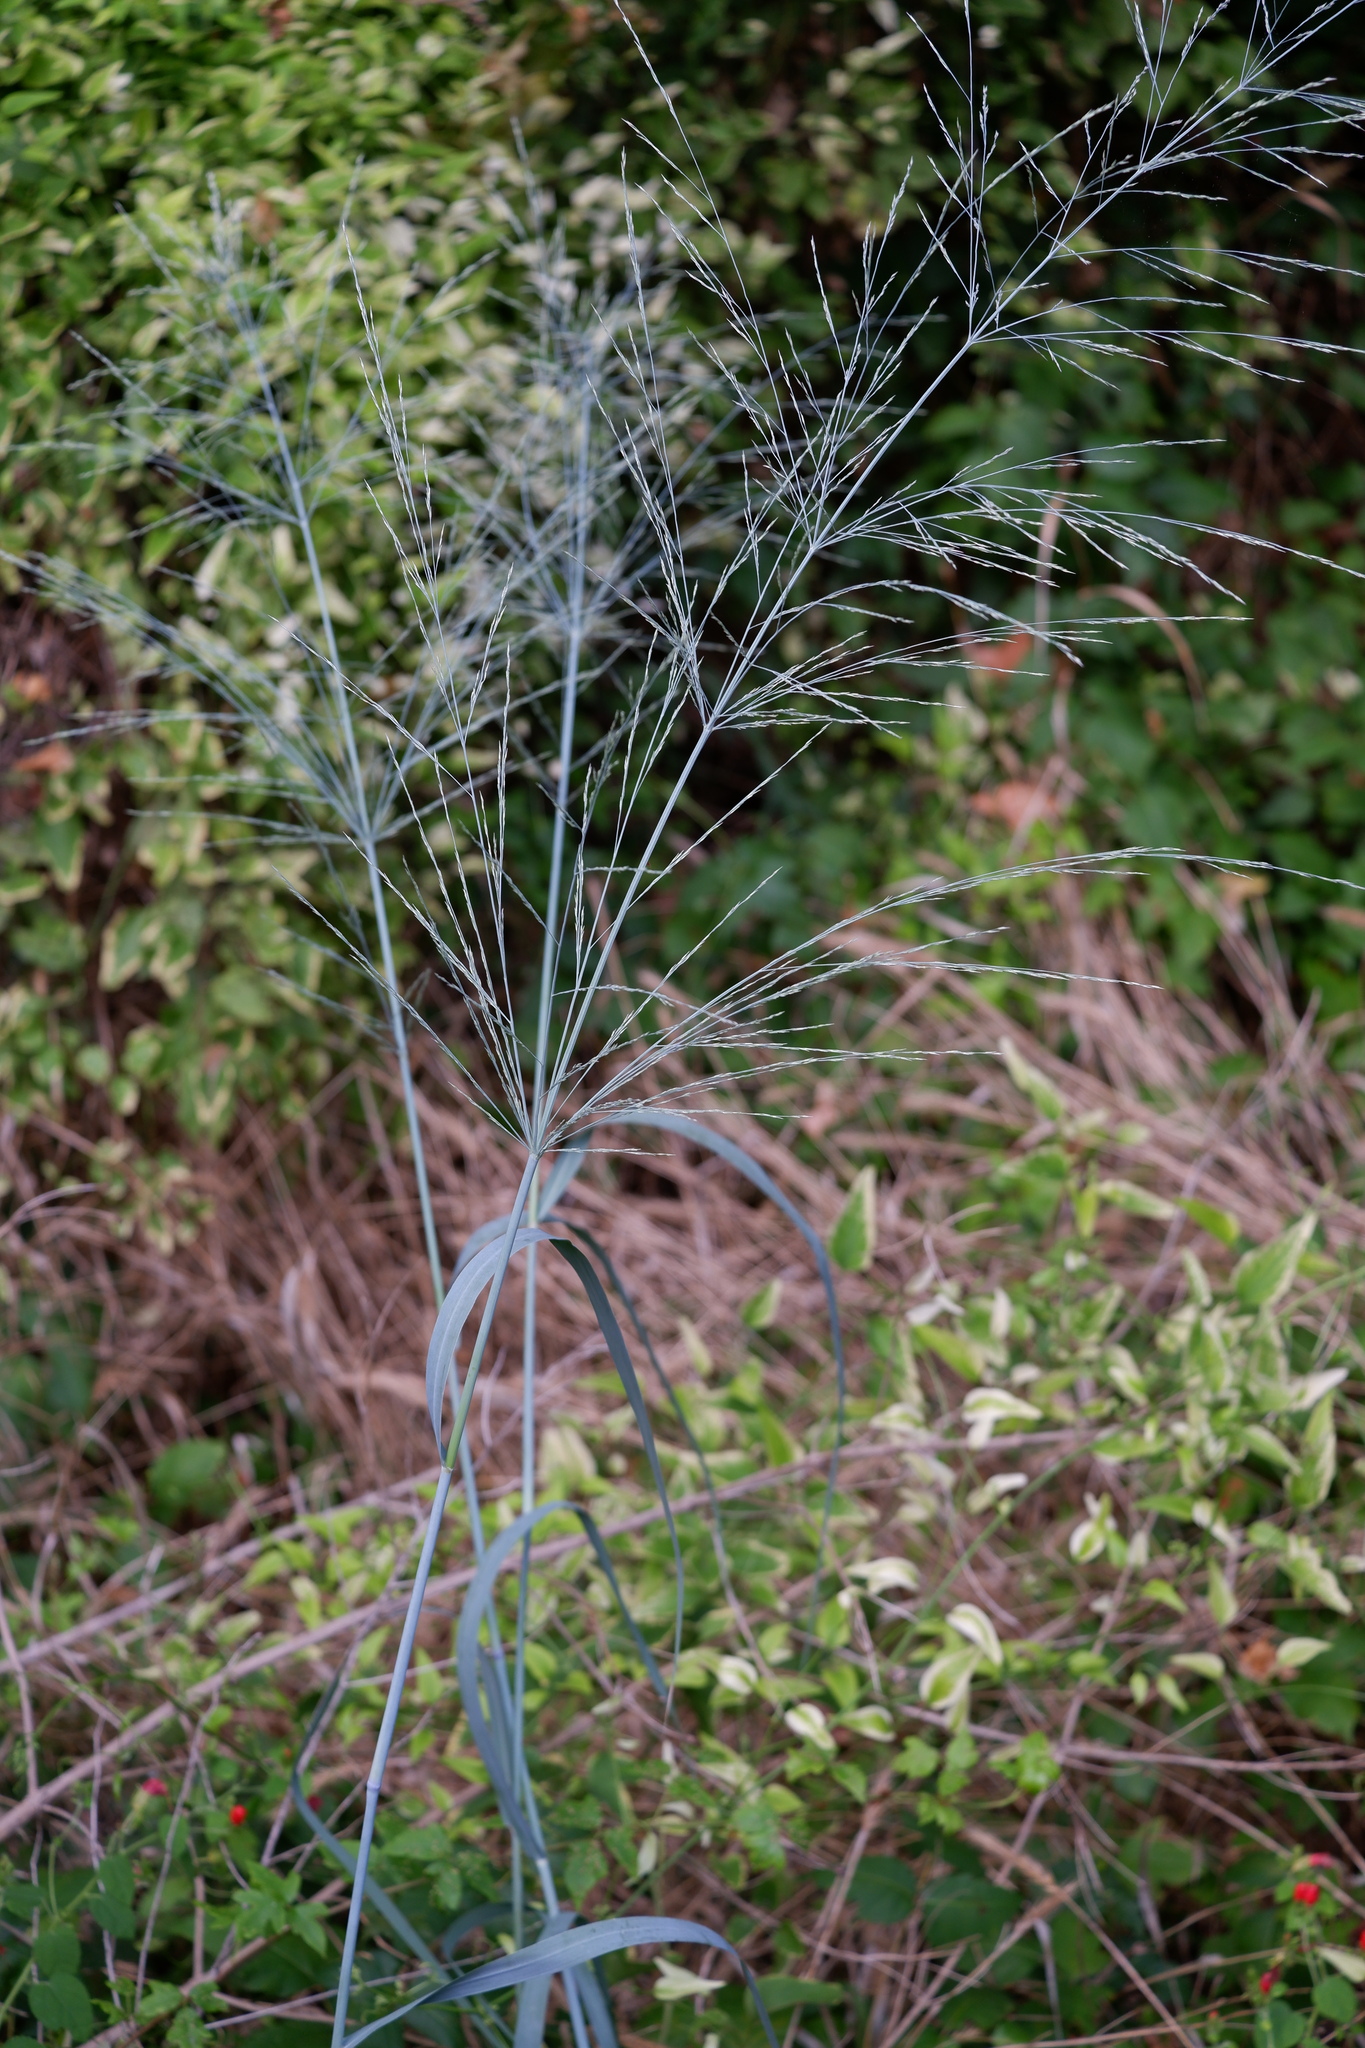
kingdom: Plantae
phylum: Tracheophyta
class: Liliopsida
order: Poales
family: Poaceae
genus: Panicum
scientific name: Panicum virgatum
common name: Switchgrass
